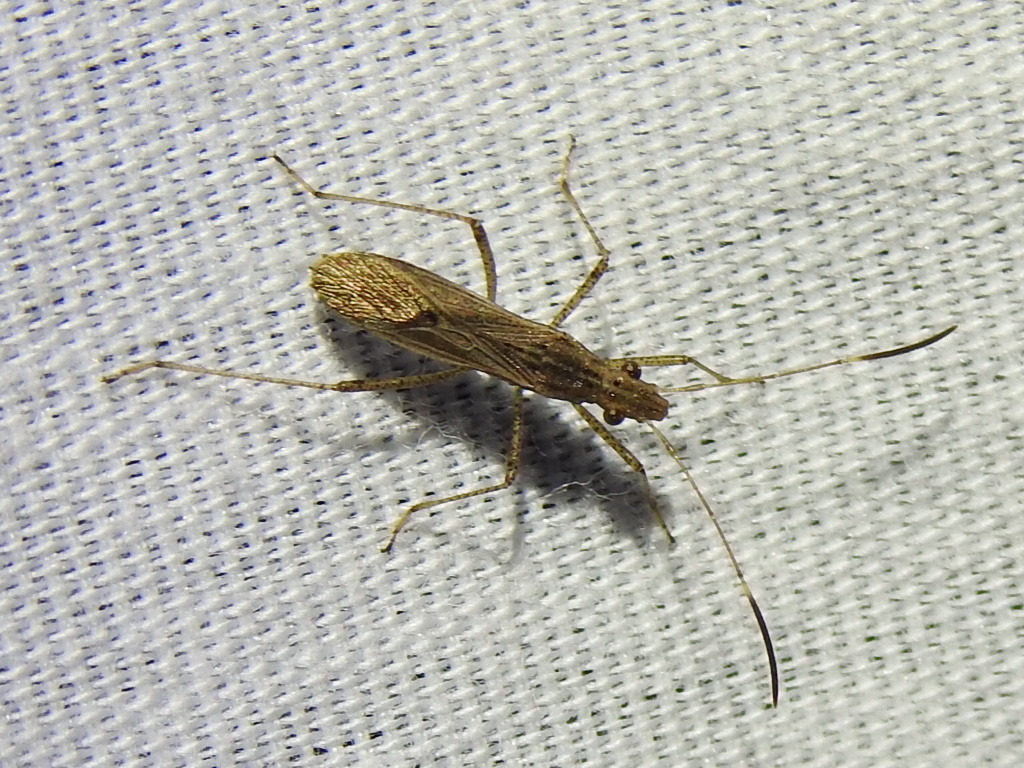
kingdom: Animalia
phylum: Arthropoda
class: Insecta
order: Hemiptera
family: Alydidae
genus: Esperanza
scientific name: Esperanza texana
